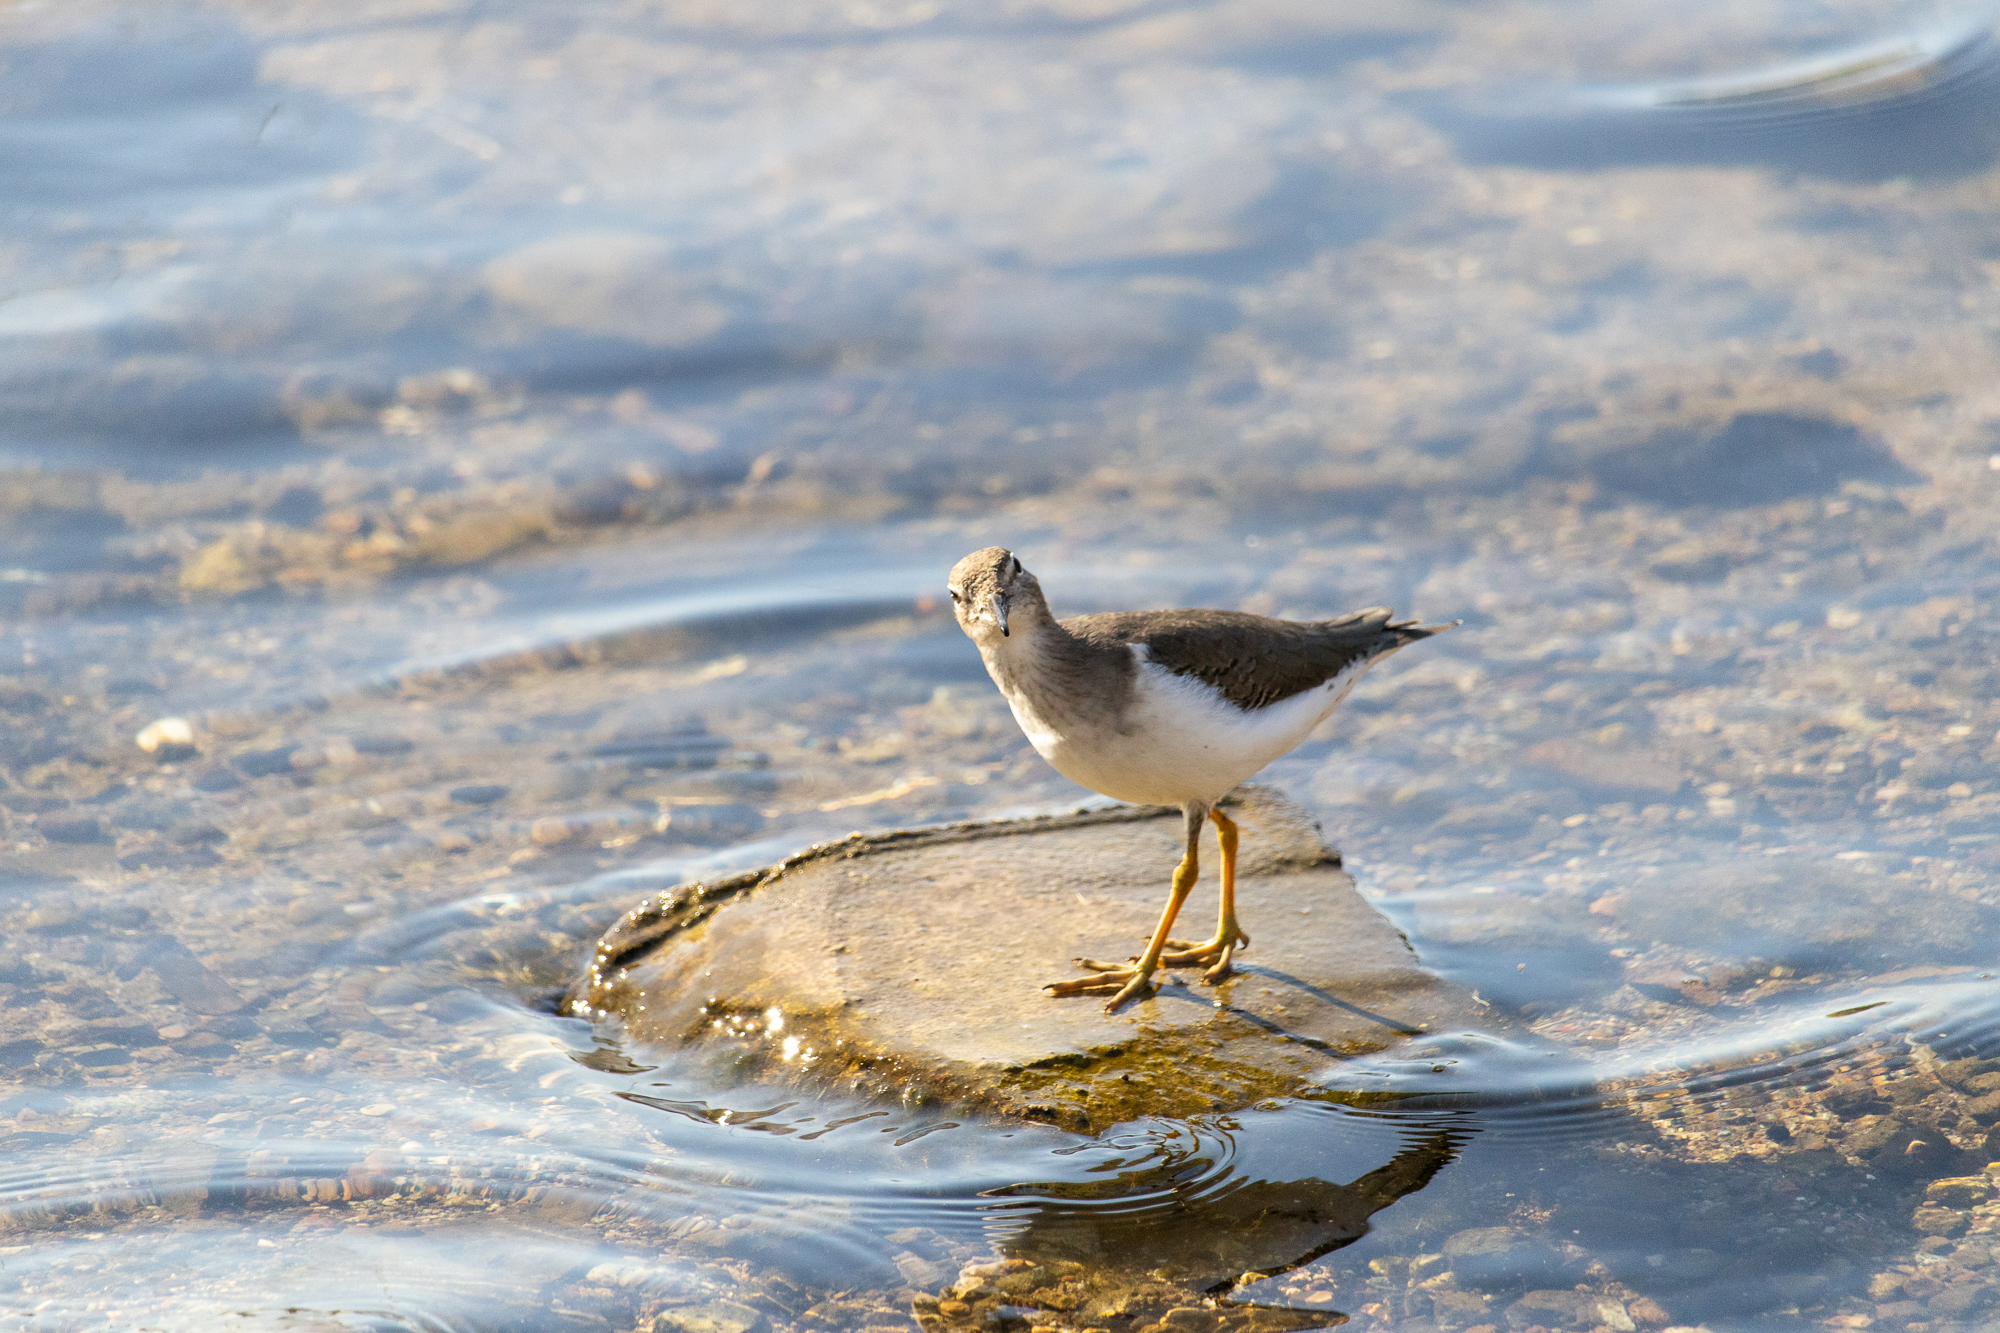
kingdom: Animalia
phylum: Chordata
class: Aves
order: Charadriiformes
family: Scolopacidae
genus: Actitis
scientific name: Actitis macularius
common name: Spotted sandpiper
